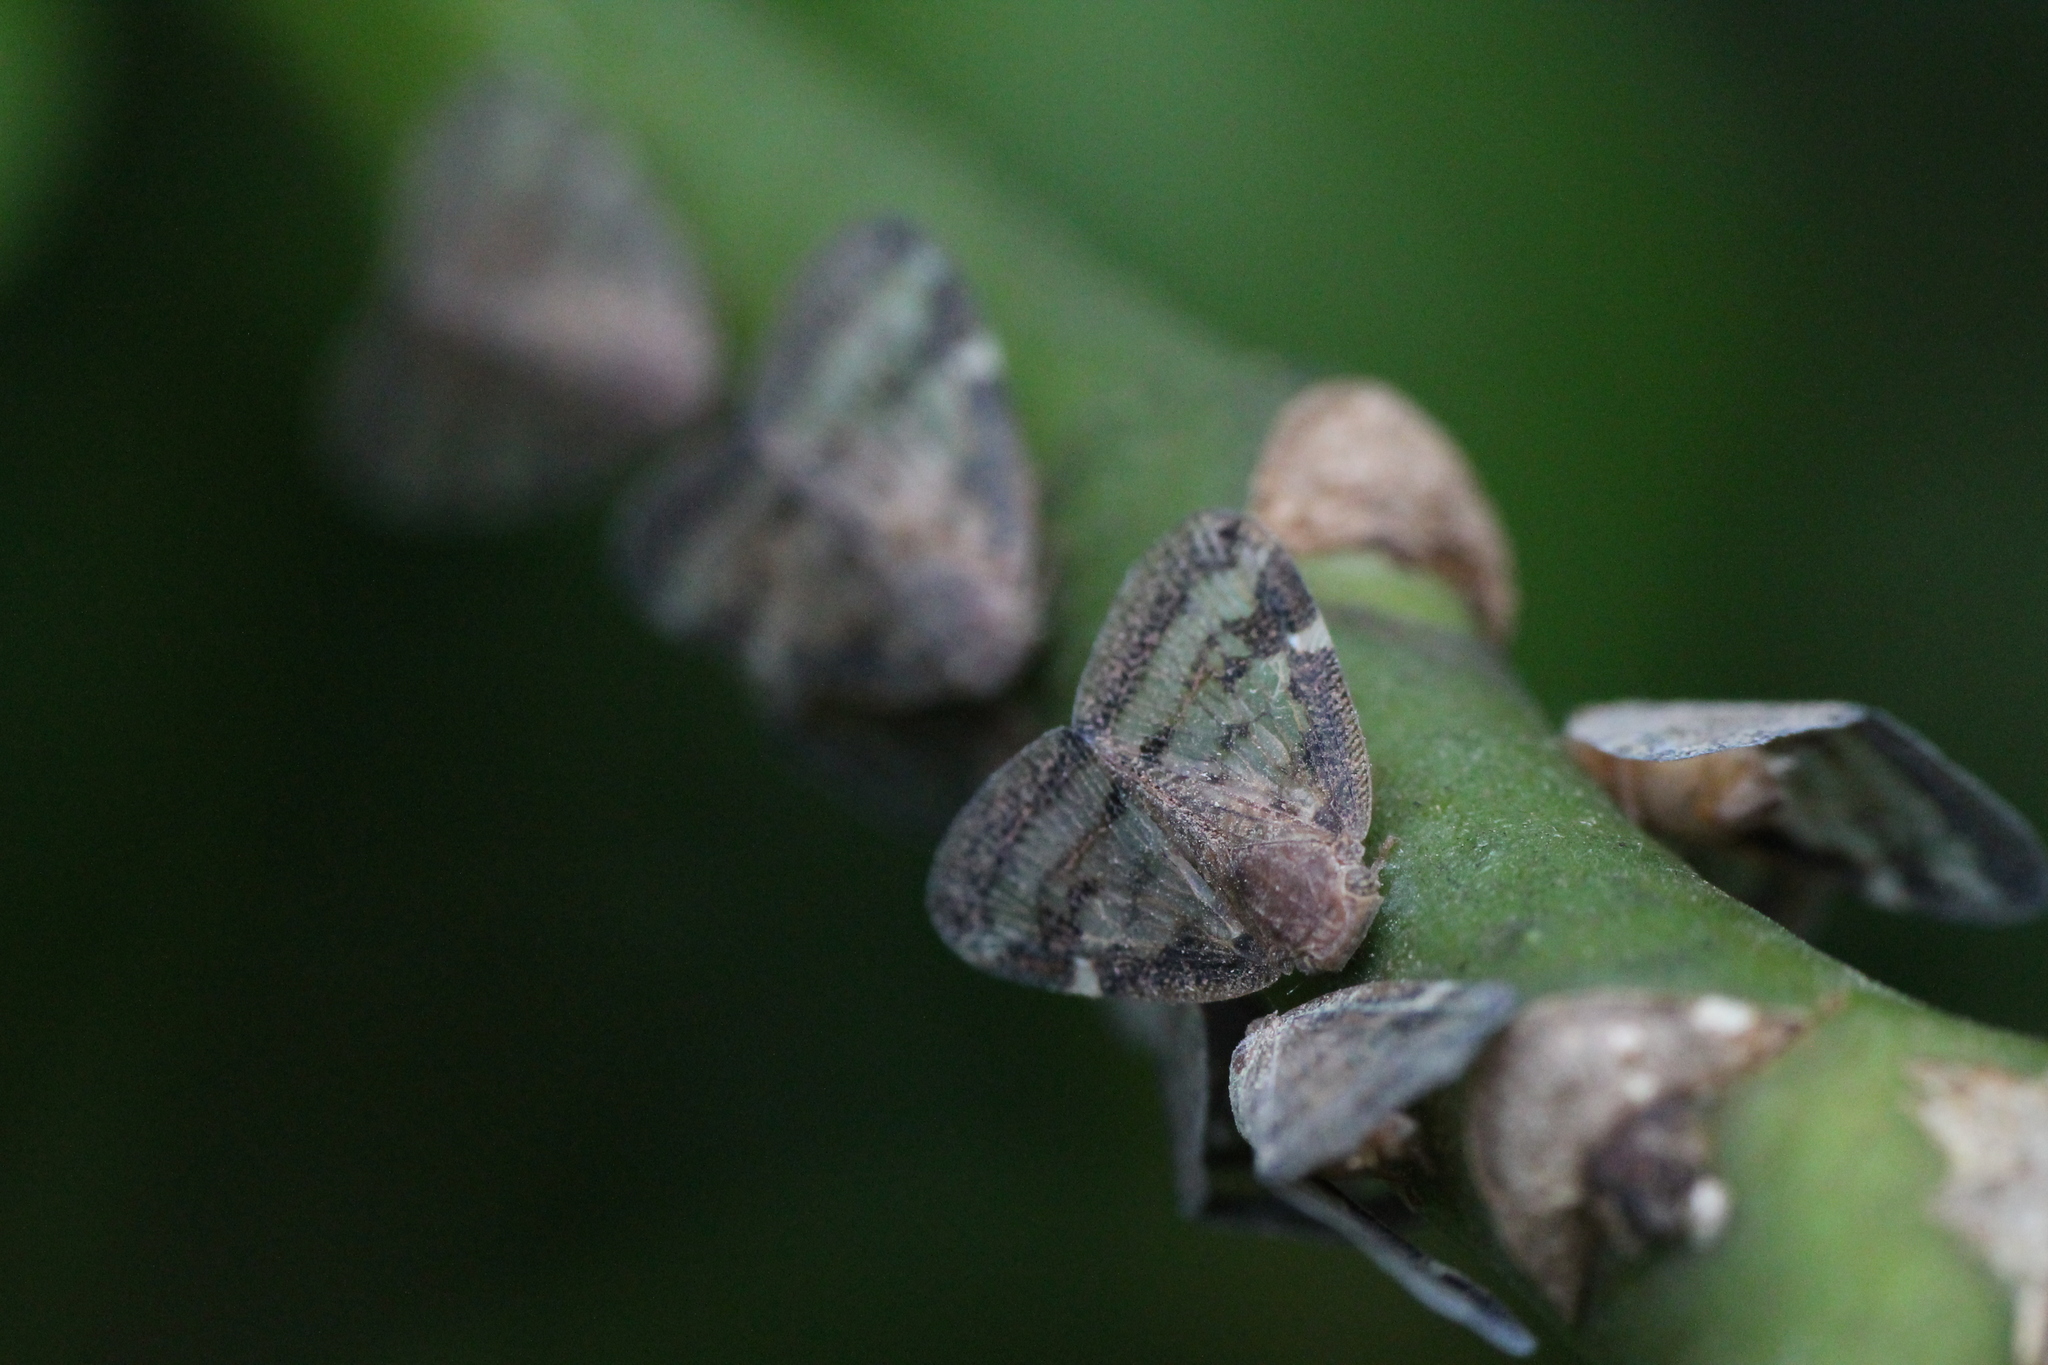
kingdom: Animalia
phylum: Arthropoda
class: Insecta
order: Hemiptera
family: Ricaniidae
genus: Scolypopa
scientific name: Scolypopa australis
